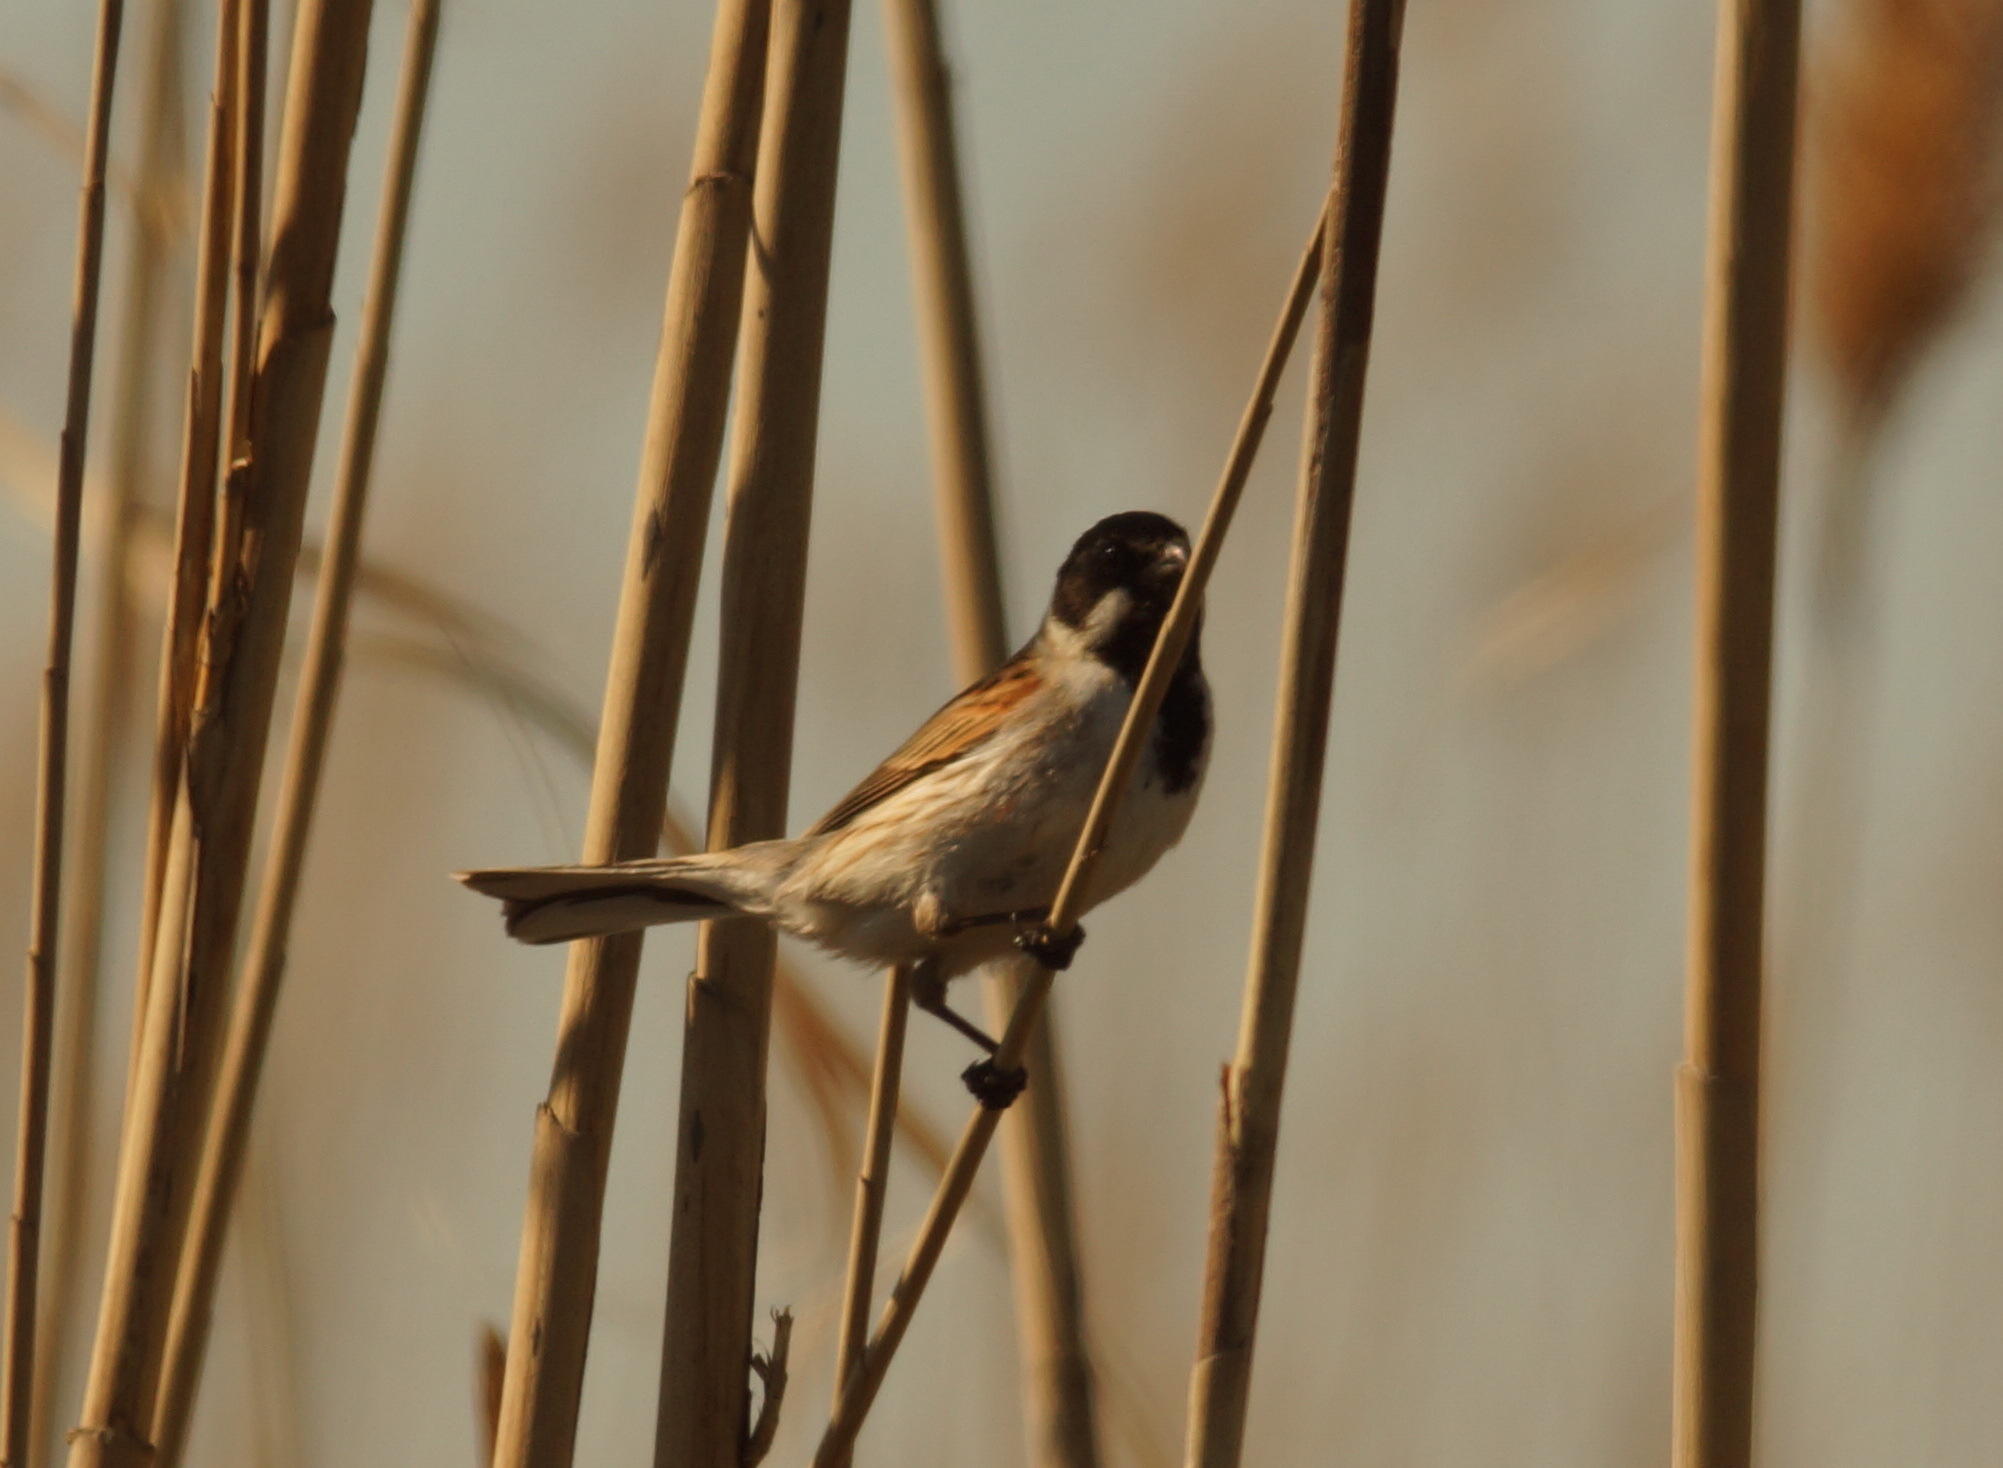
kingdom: Animalia
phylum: Chordata
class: Aves
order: Passeriformes
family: Emberizidae
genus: Emberiza
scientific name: Emberiza schoeniclus
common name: Reed bunting
